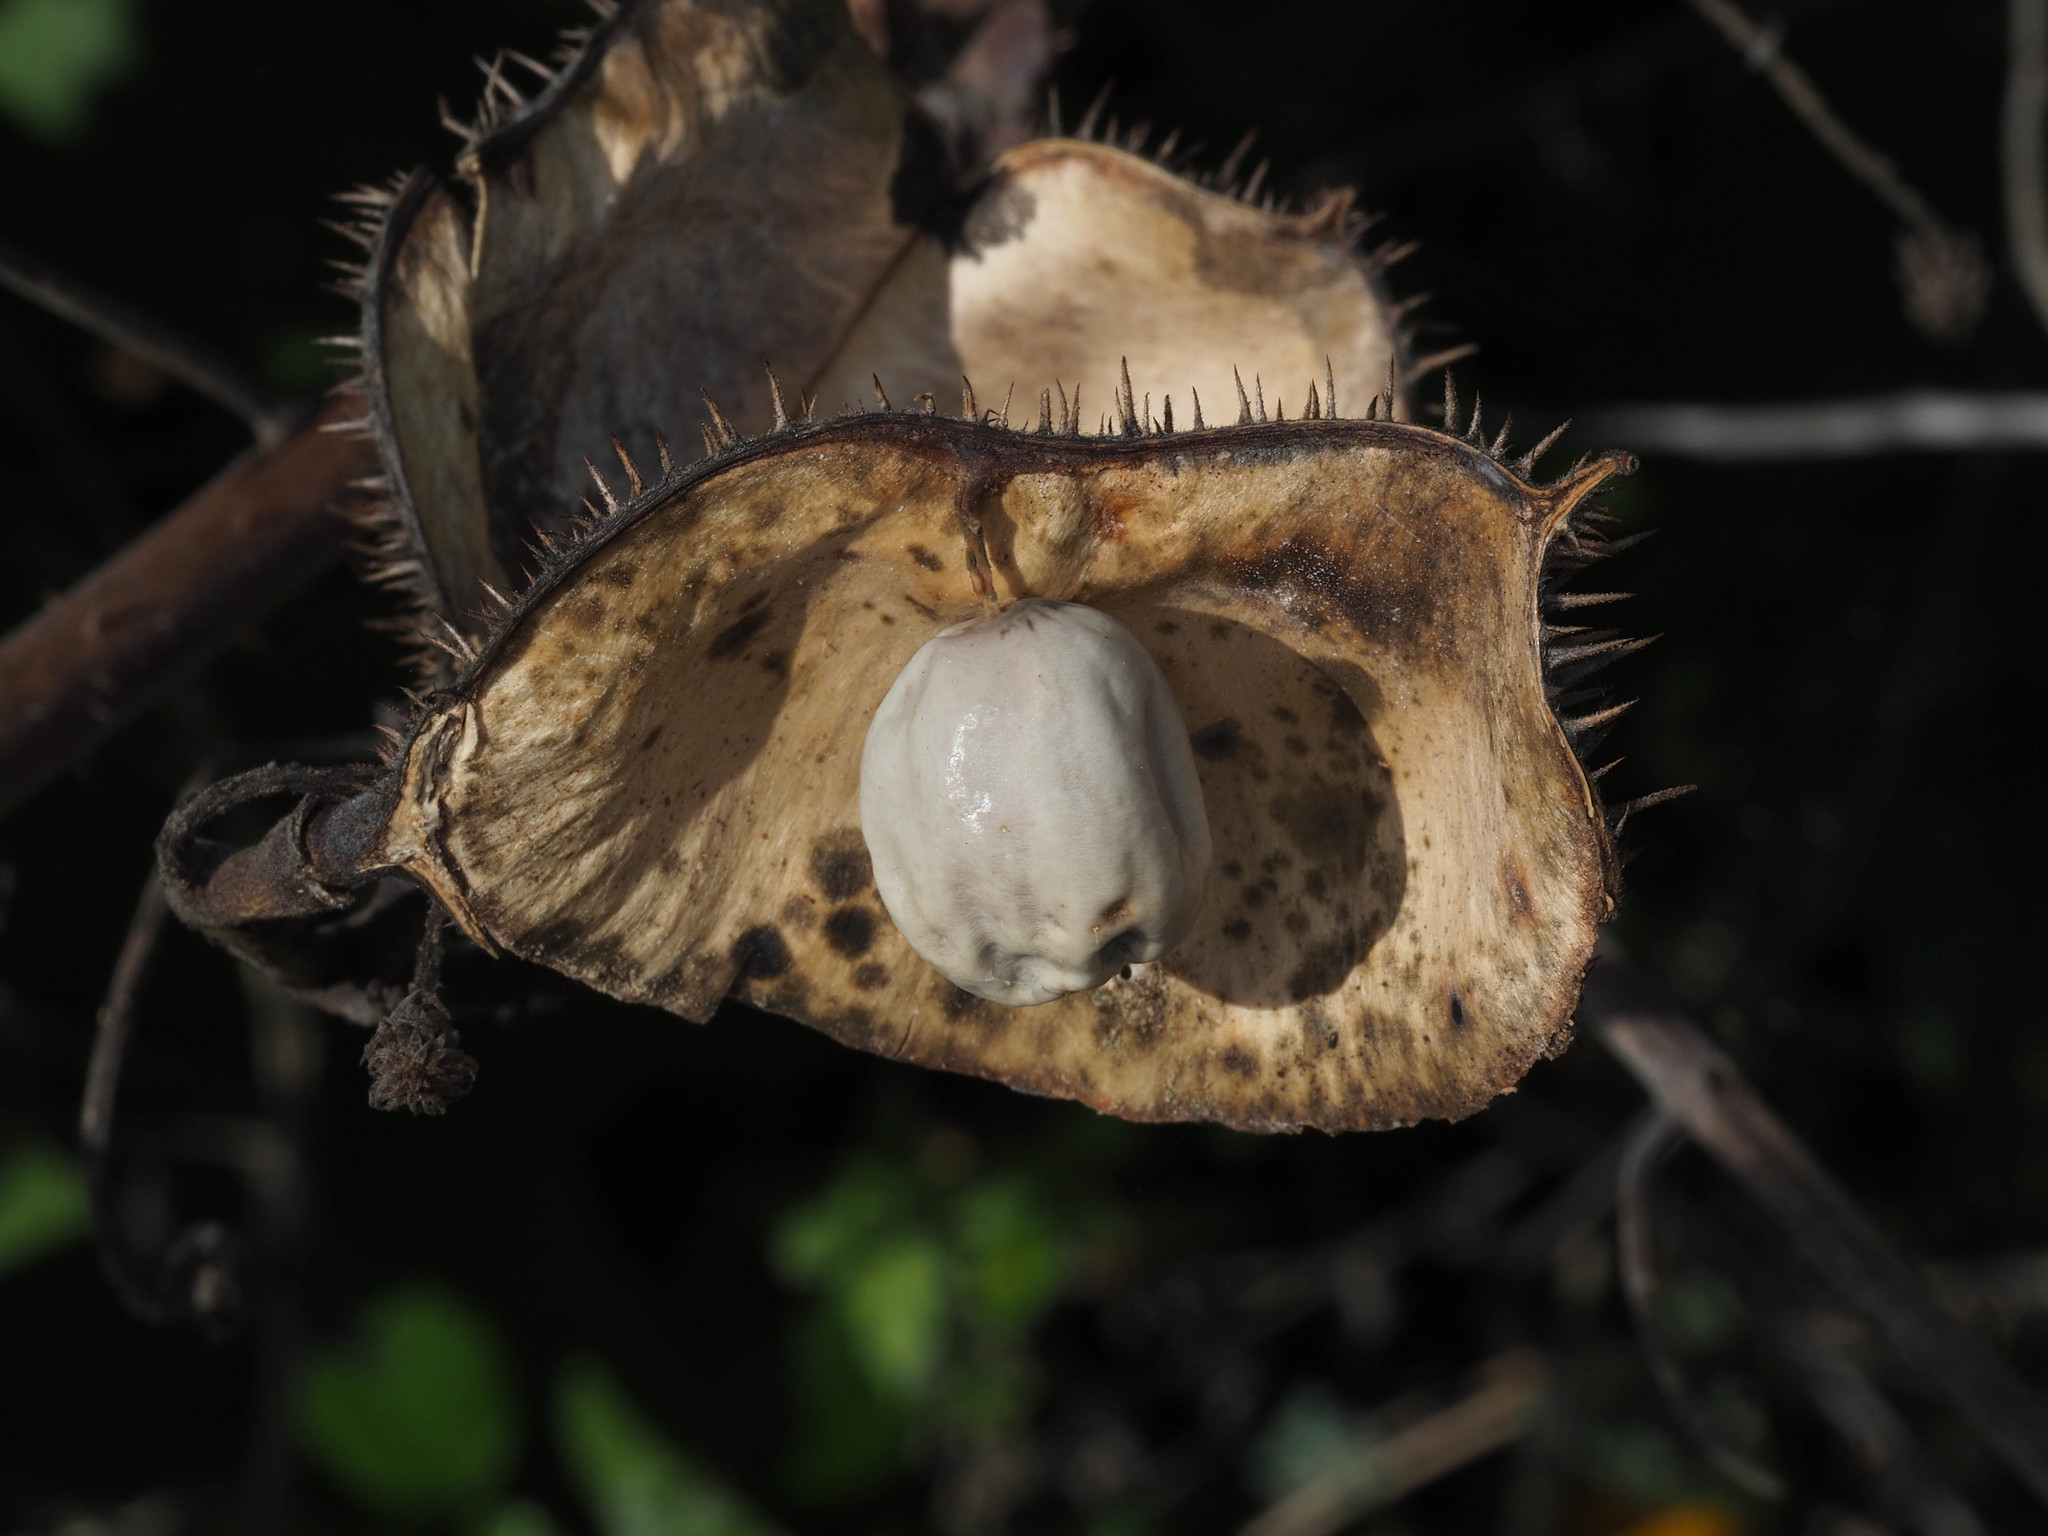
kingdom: Plantae
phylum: Tracheophyta
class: Magnoliopsida
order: Fabales
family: Fabaceae
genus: Guilandina
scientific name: Guilandina bonduc
